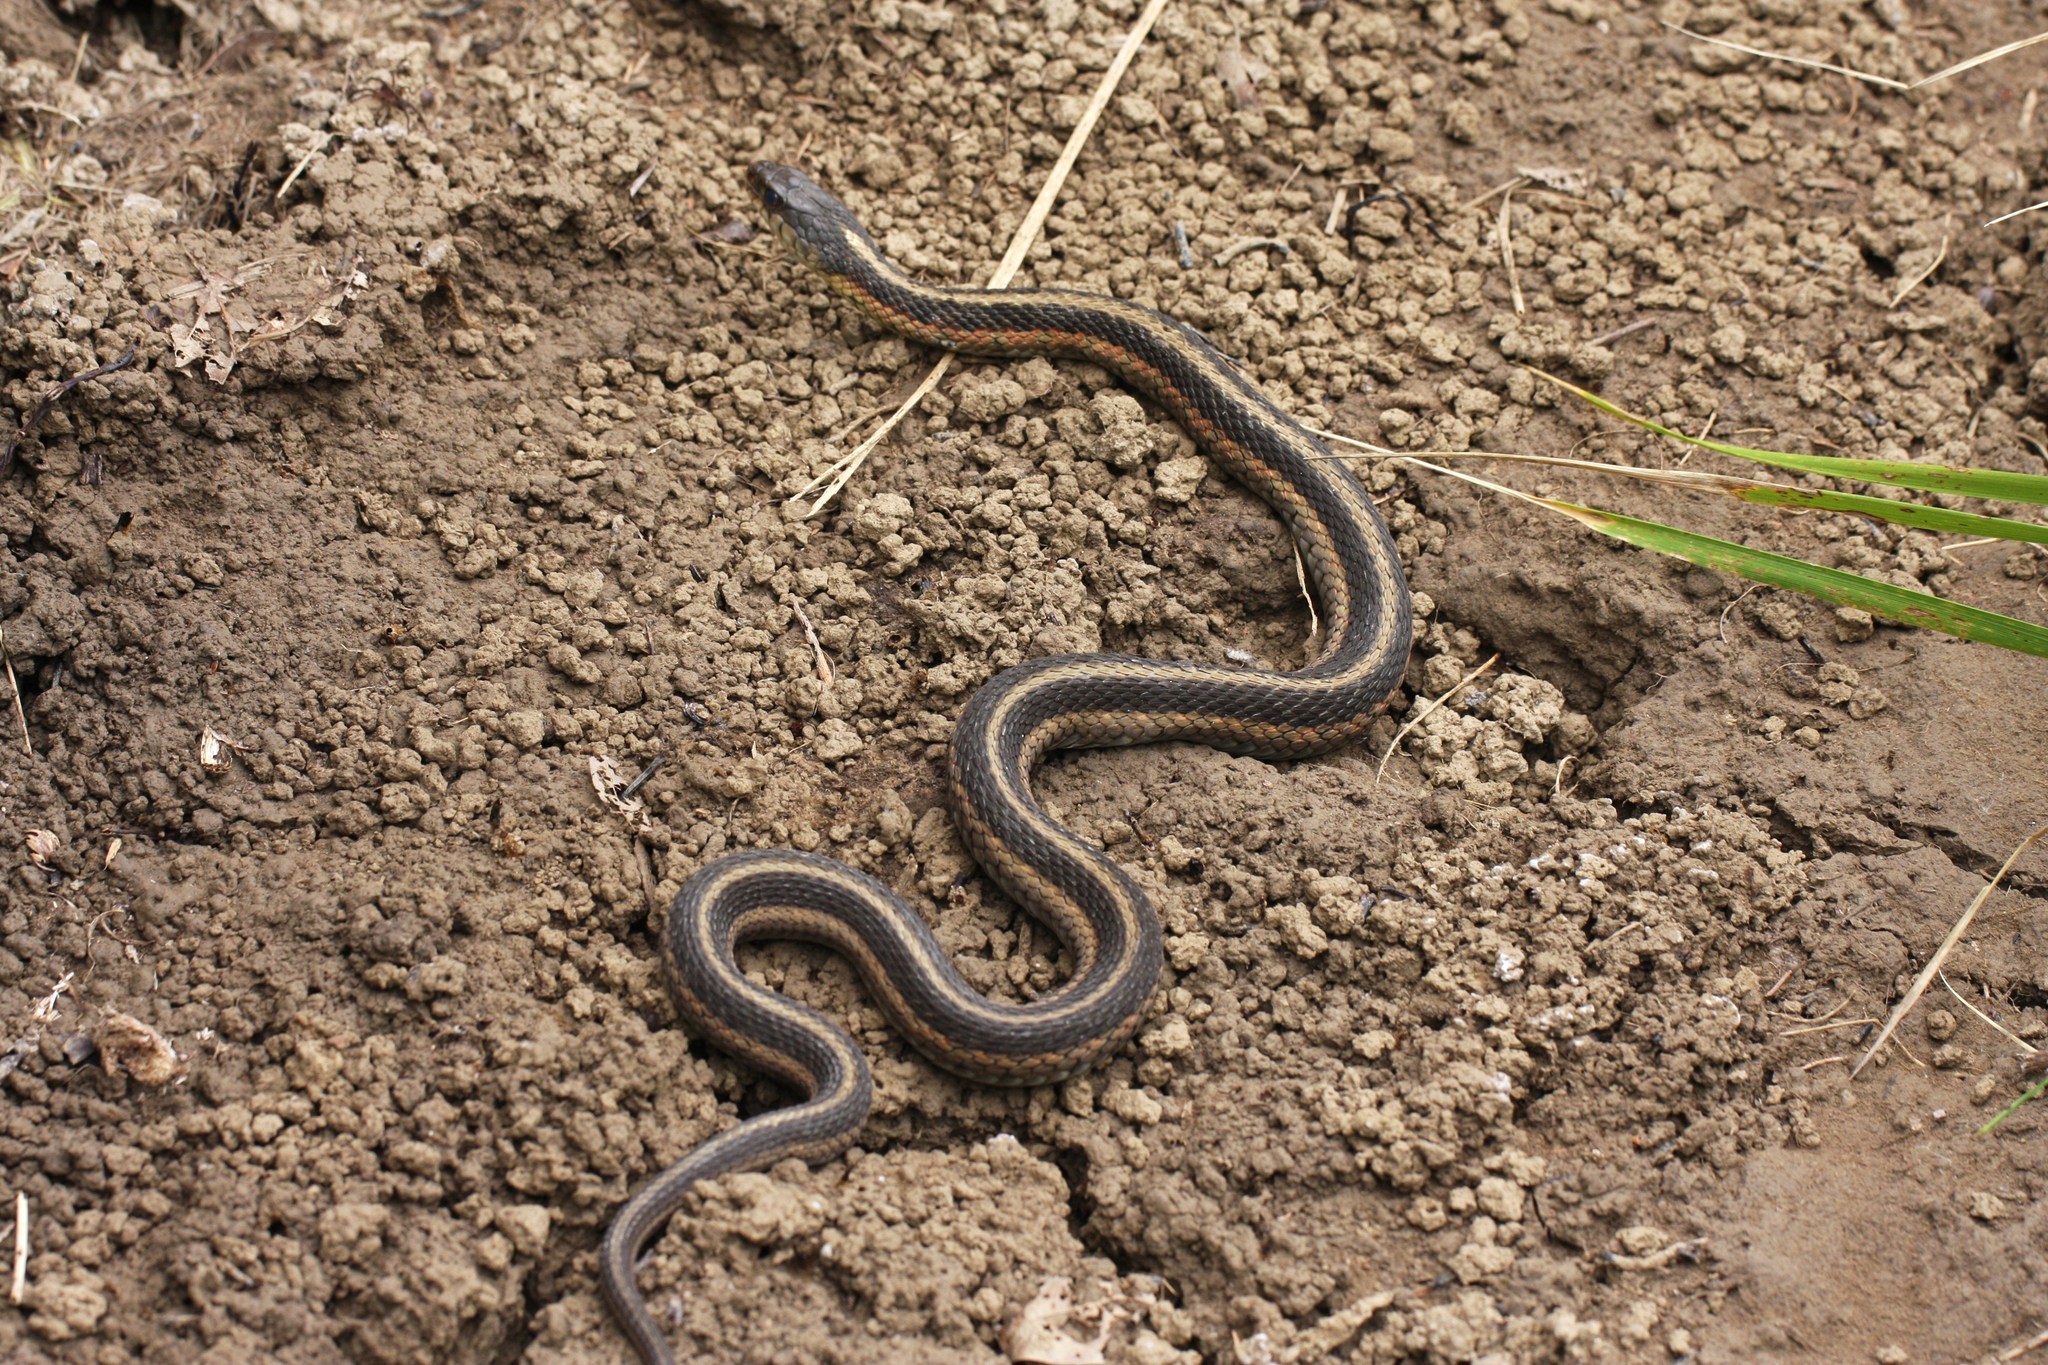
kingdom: Animalia
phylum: Chordata
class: Squamata
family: Colubridae
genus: Thamnophis
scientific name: Thamnophis sirtalis
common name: Common garter snake
